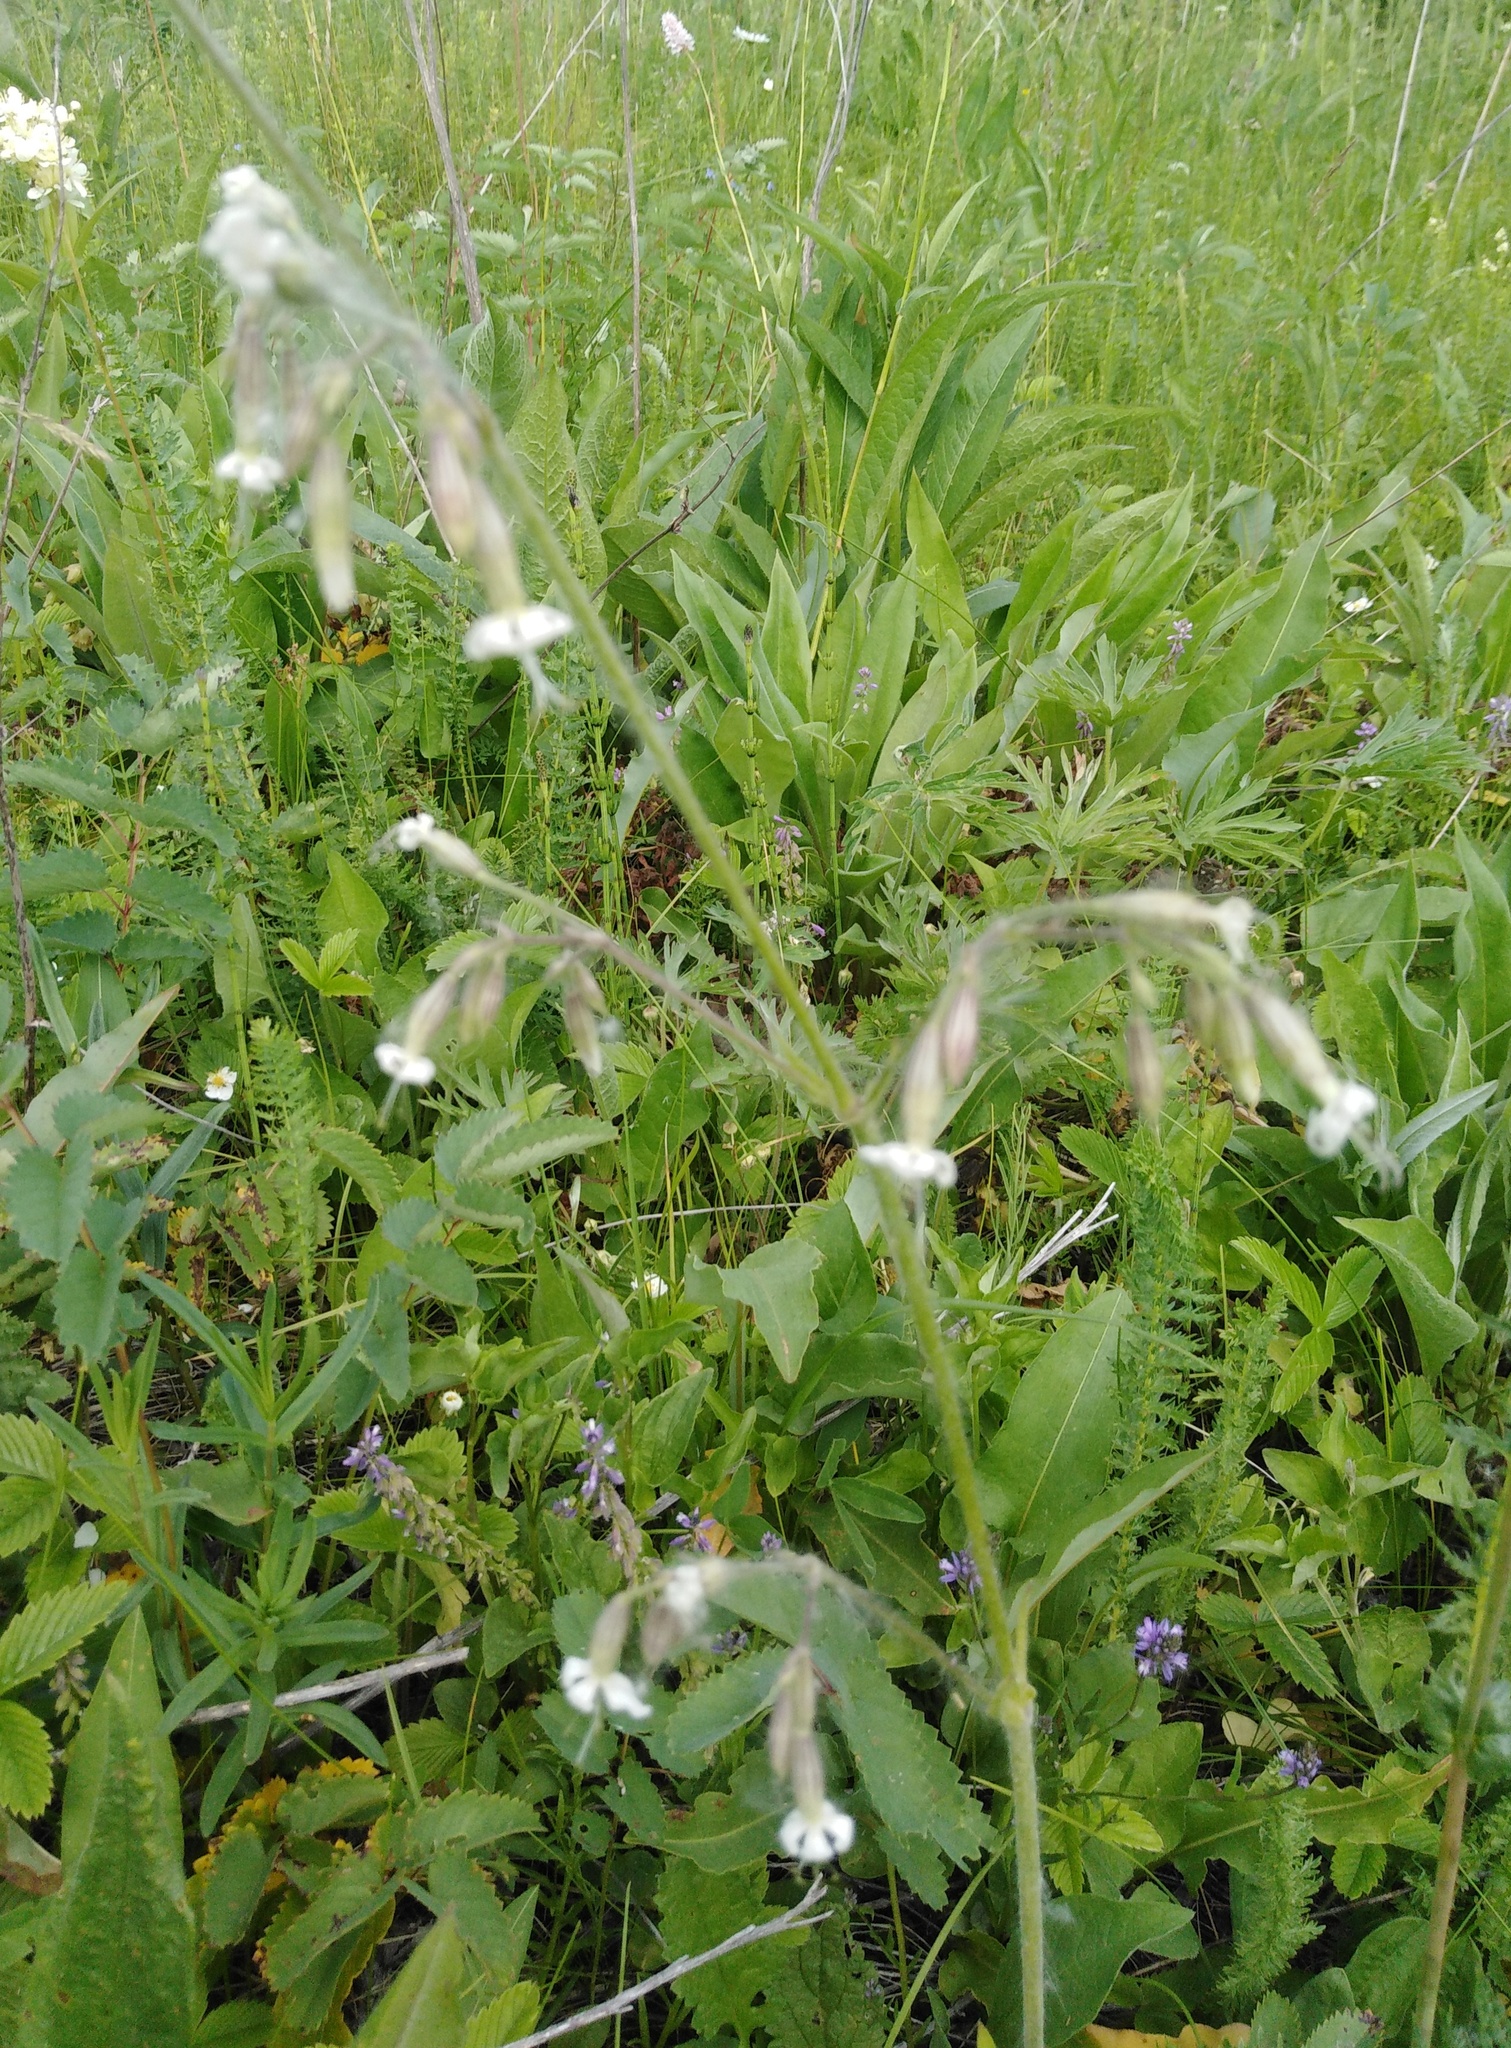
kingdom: Plantae
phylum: Tracheophyta
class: Magnoliopsida
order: Caryophyllales
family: Caryophyllaceae
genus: Silene
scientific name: Silene nutans
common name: Nottingham catchfly
